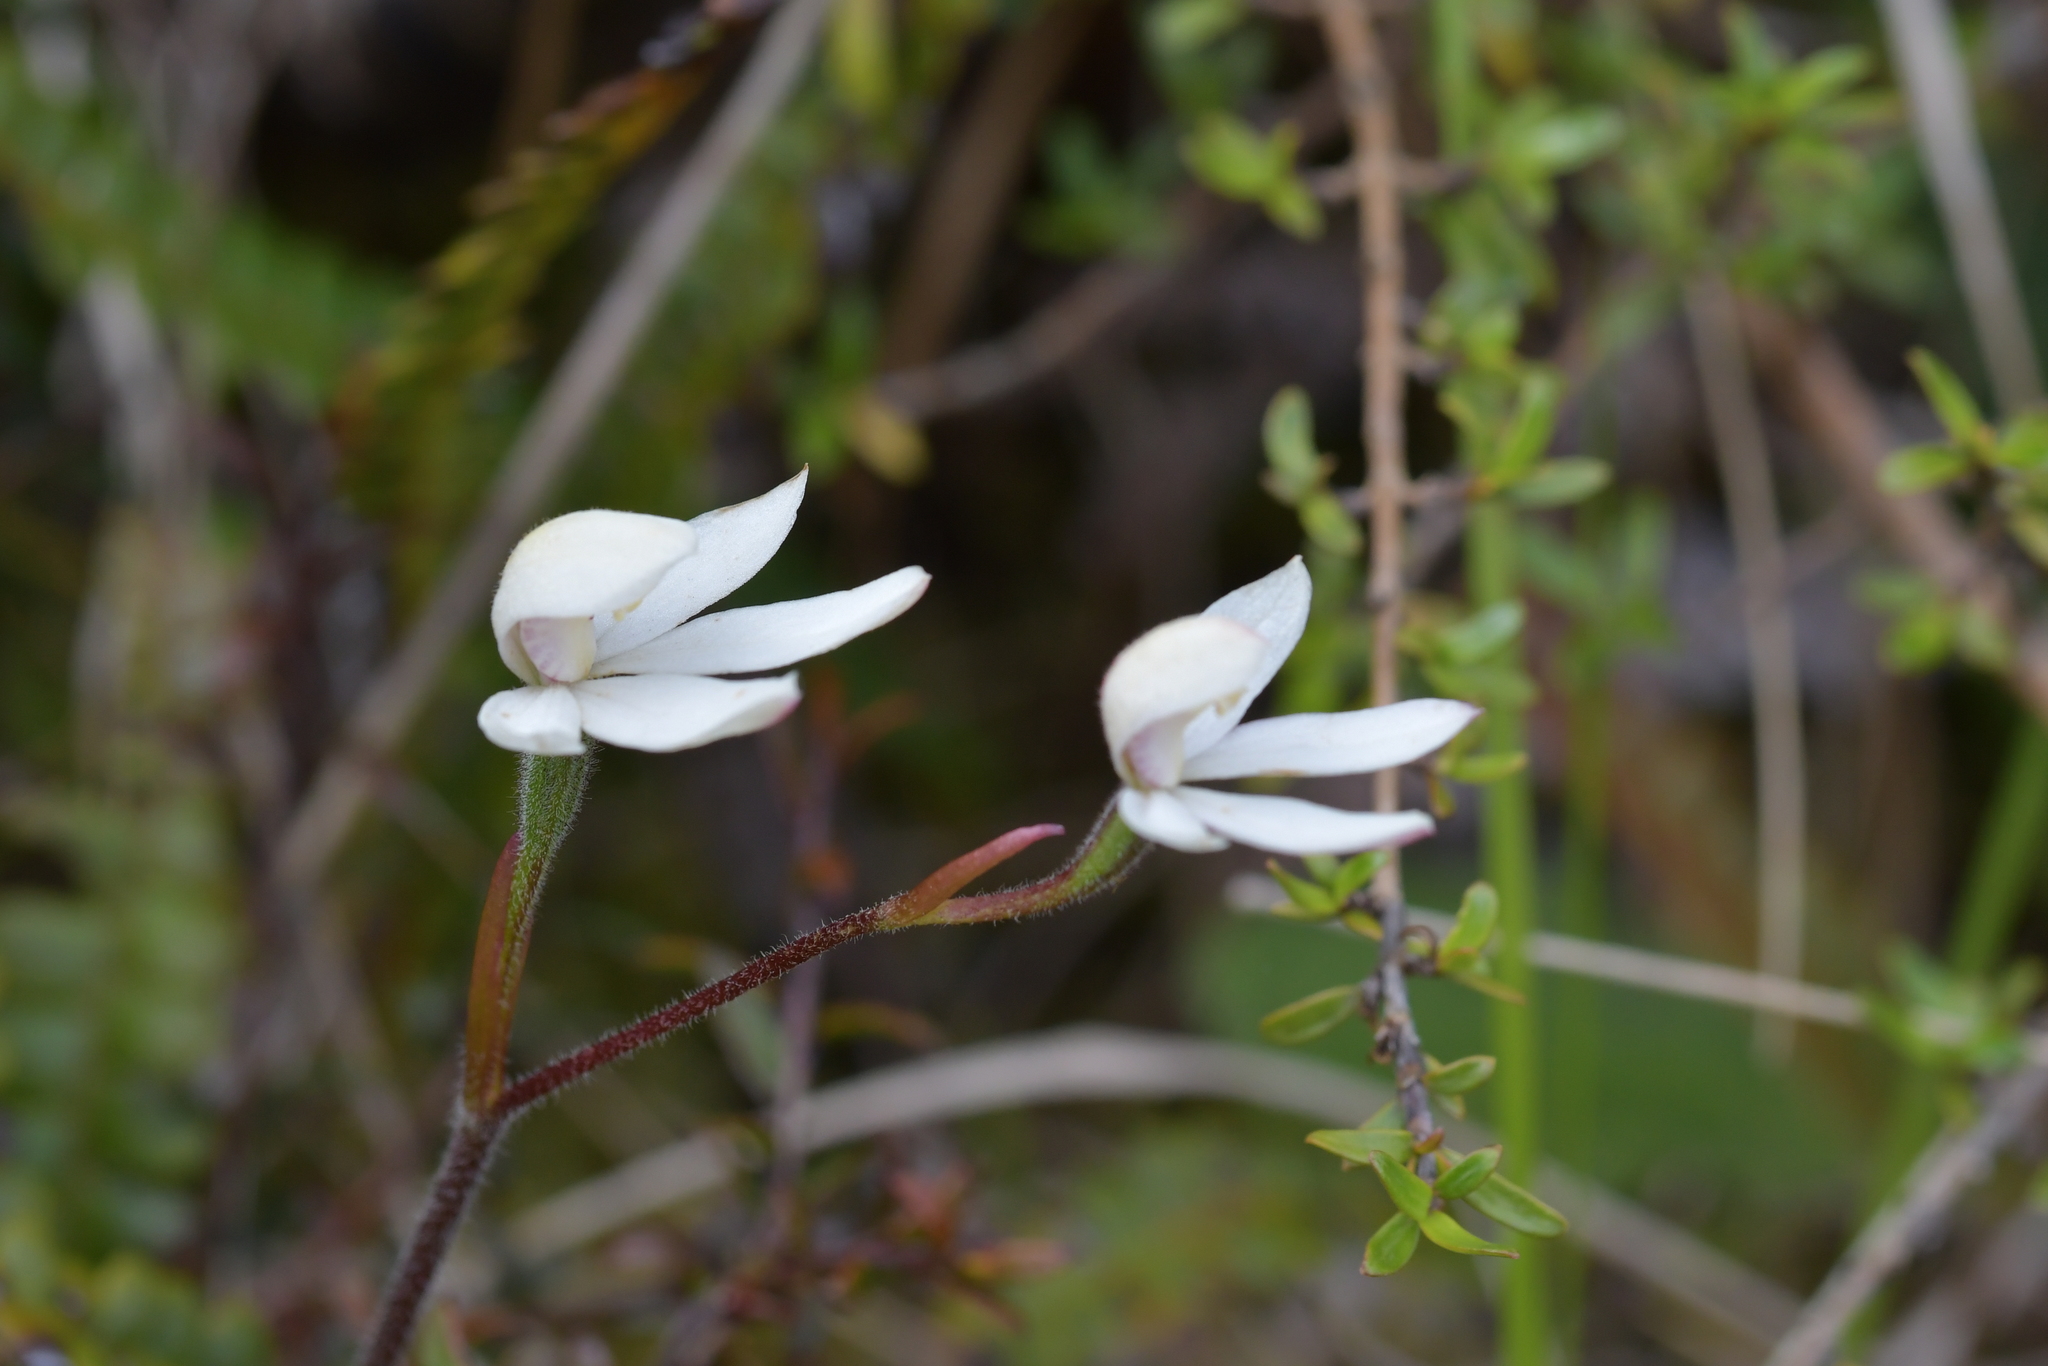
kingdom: Plantae
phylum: Tracheophyta
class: Liliopsida
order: Asparagales
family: Orchidaceae
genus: Caladenia
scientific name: Caladenia lyallii
